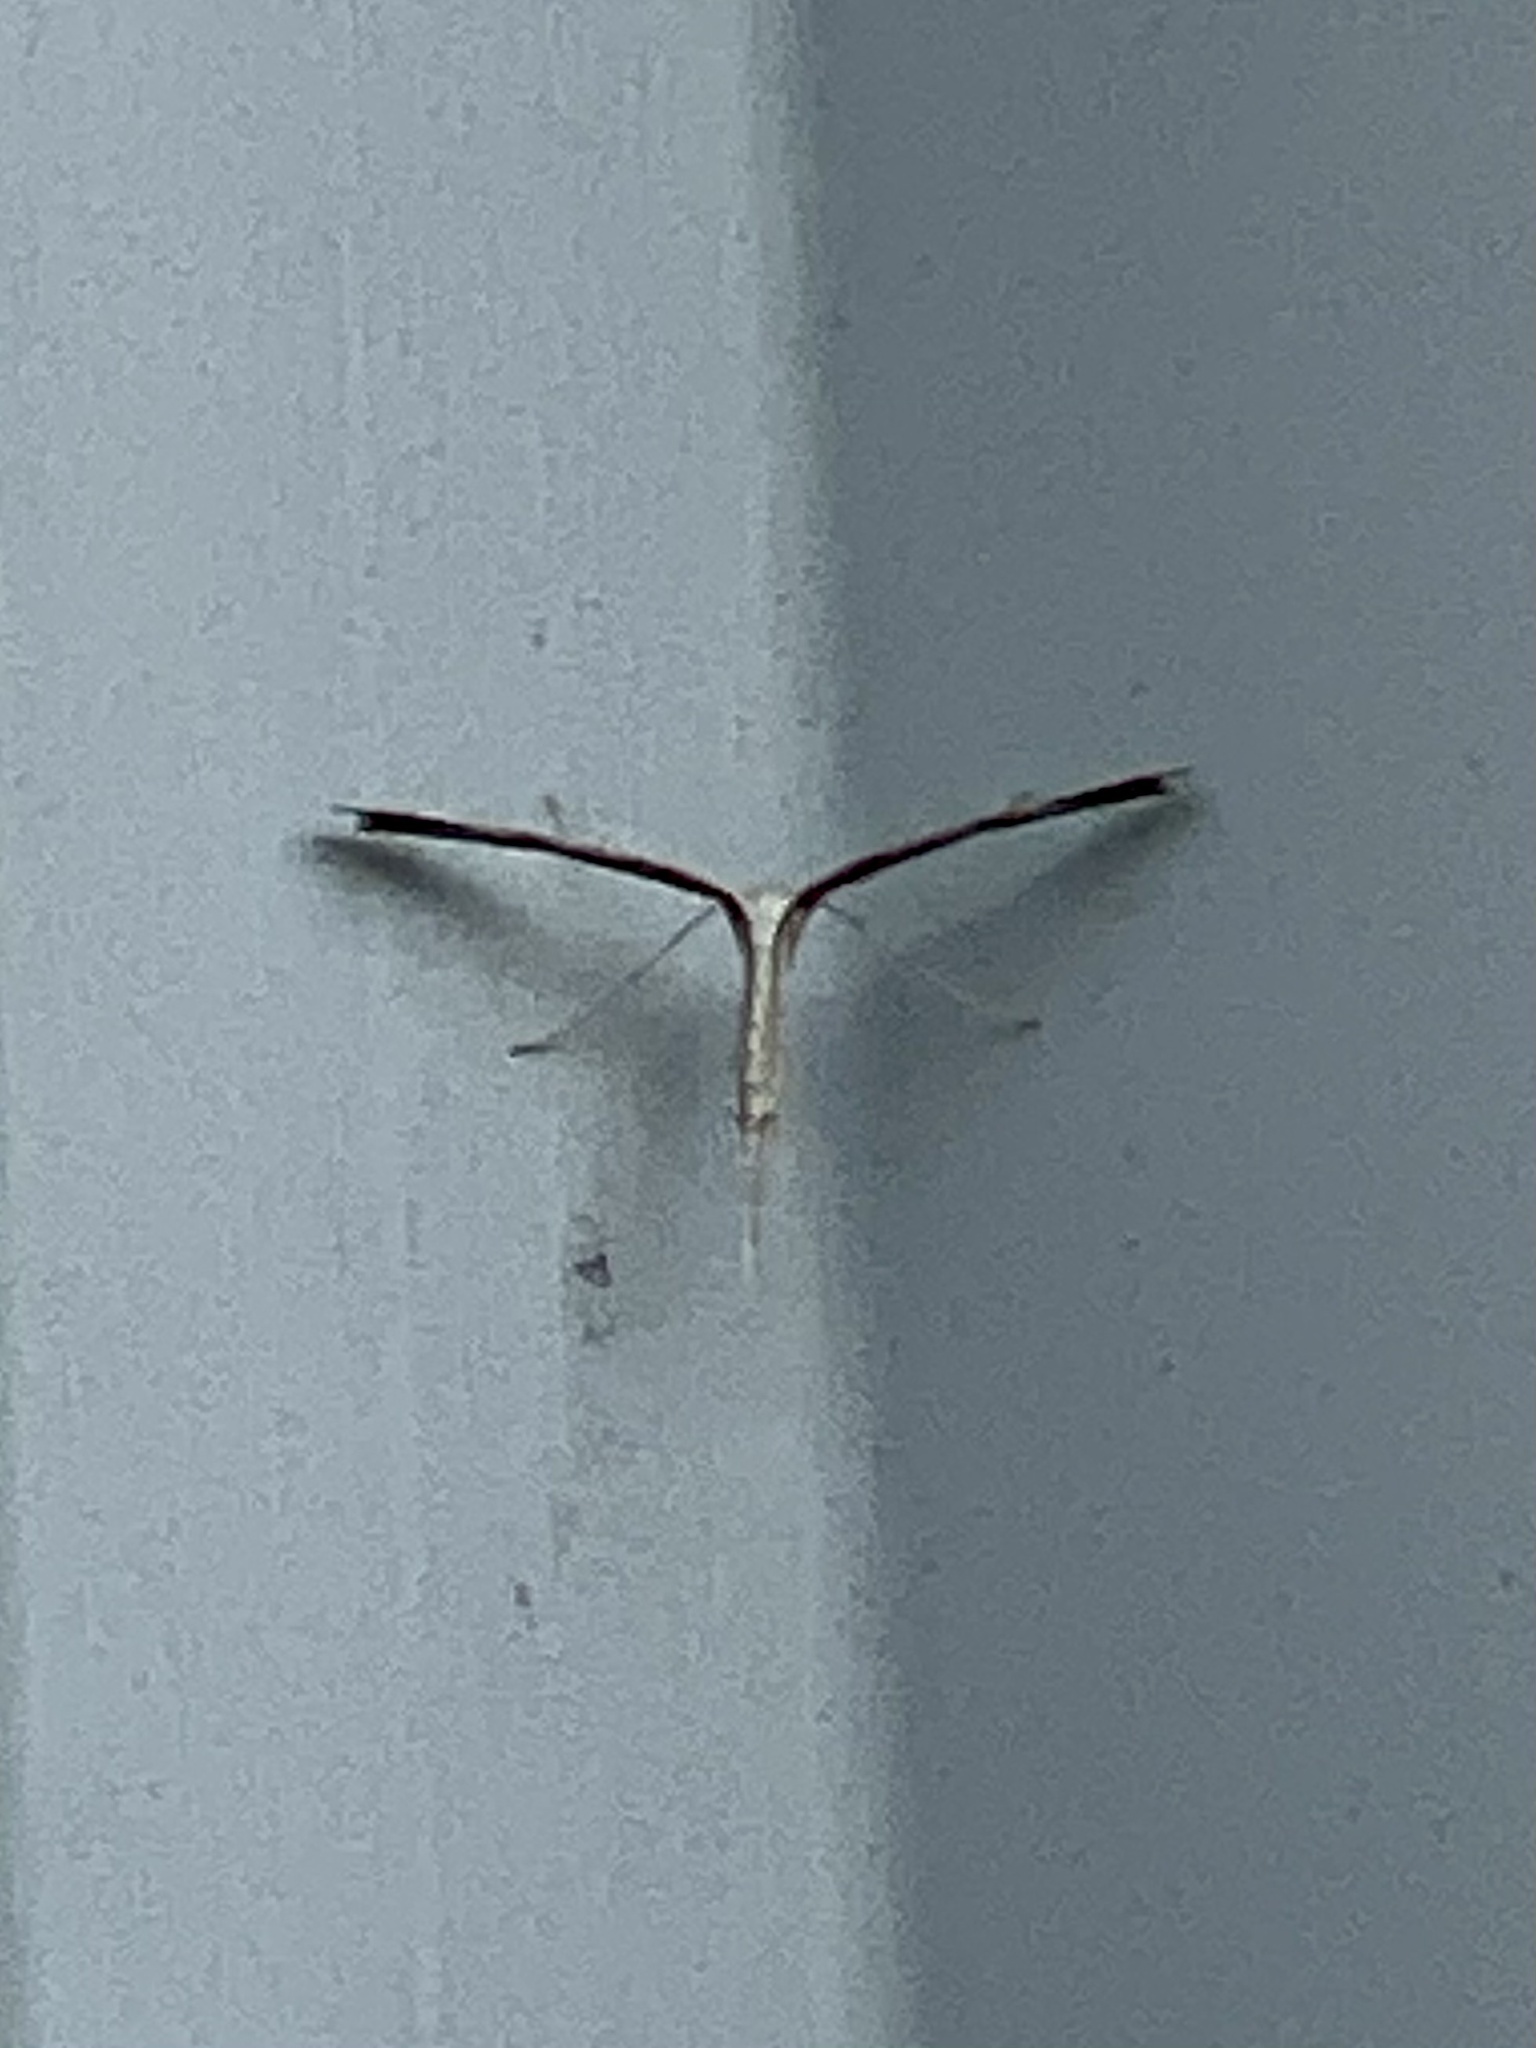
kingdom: Animalia
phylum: Arthropoda
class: Insecta
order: Lepidoptera
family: Pterophoridae
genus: Emmelina
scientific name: Emmelina monodactyla
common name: Common plume
